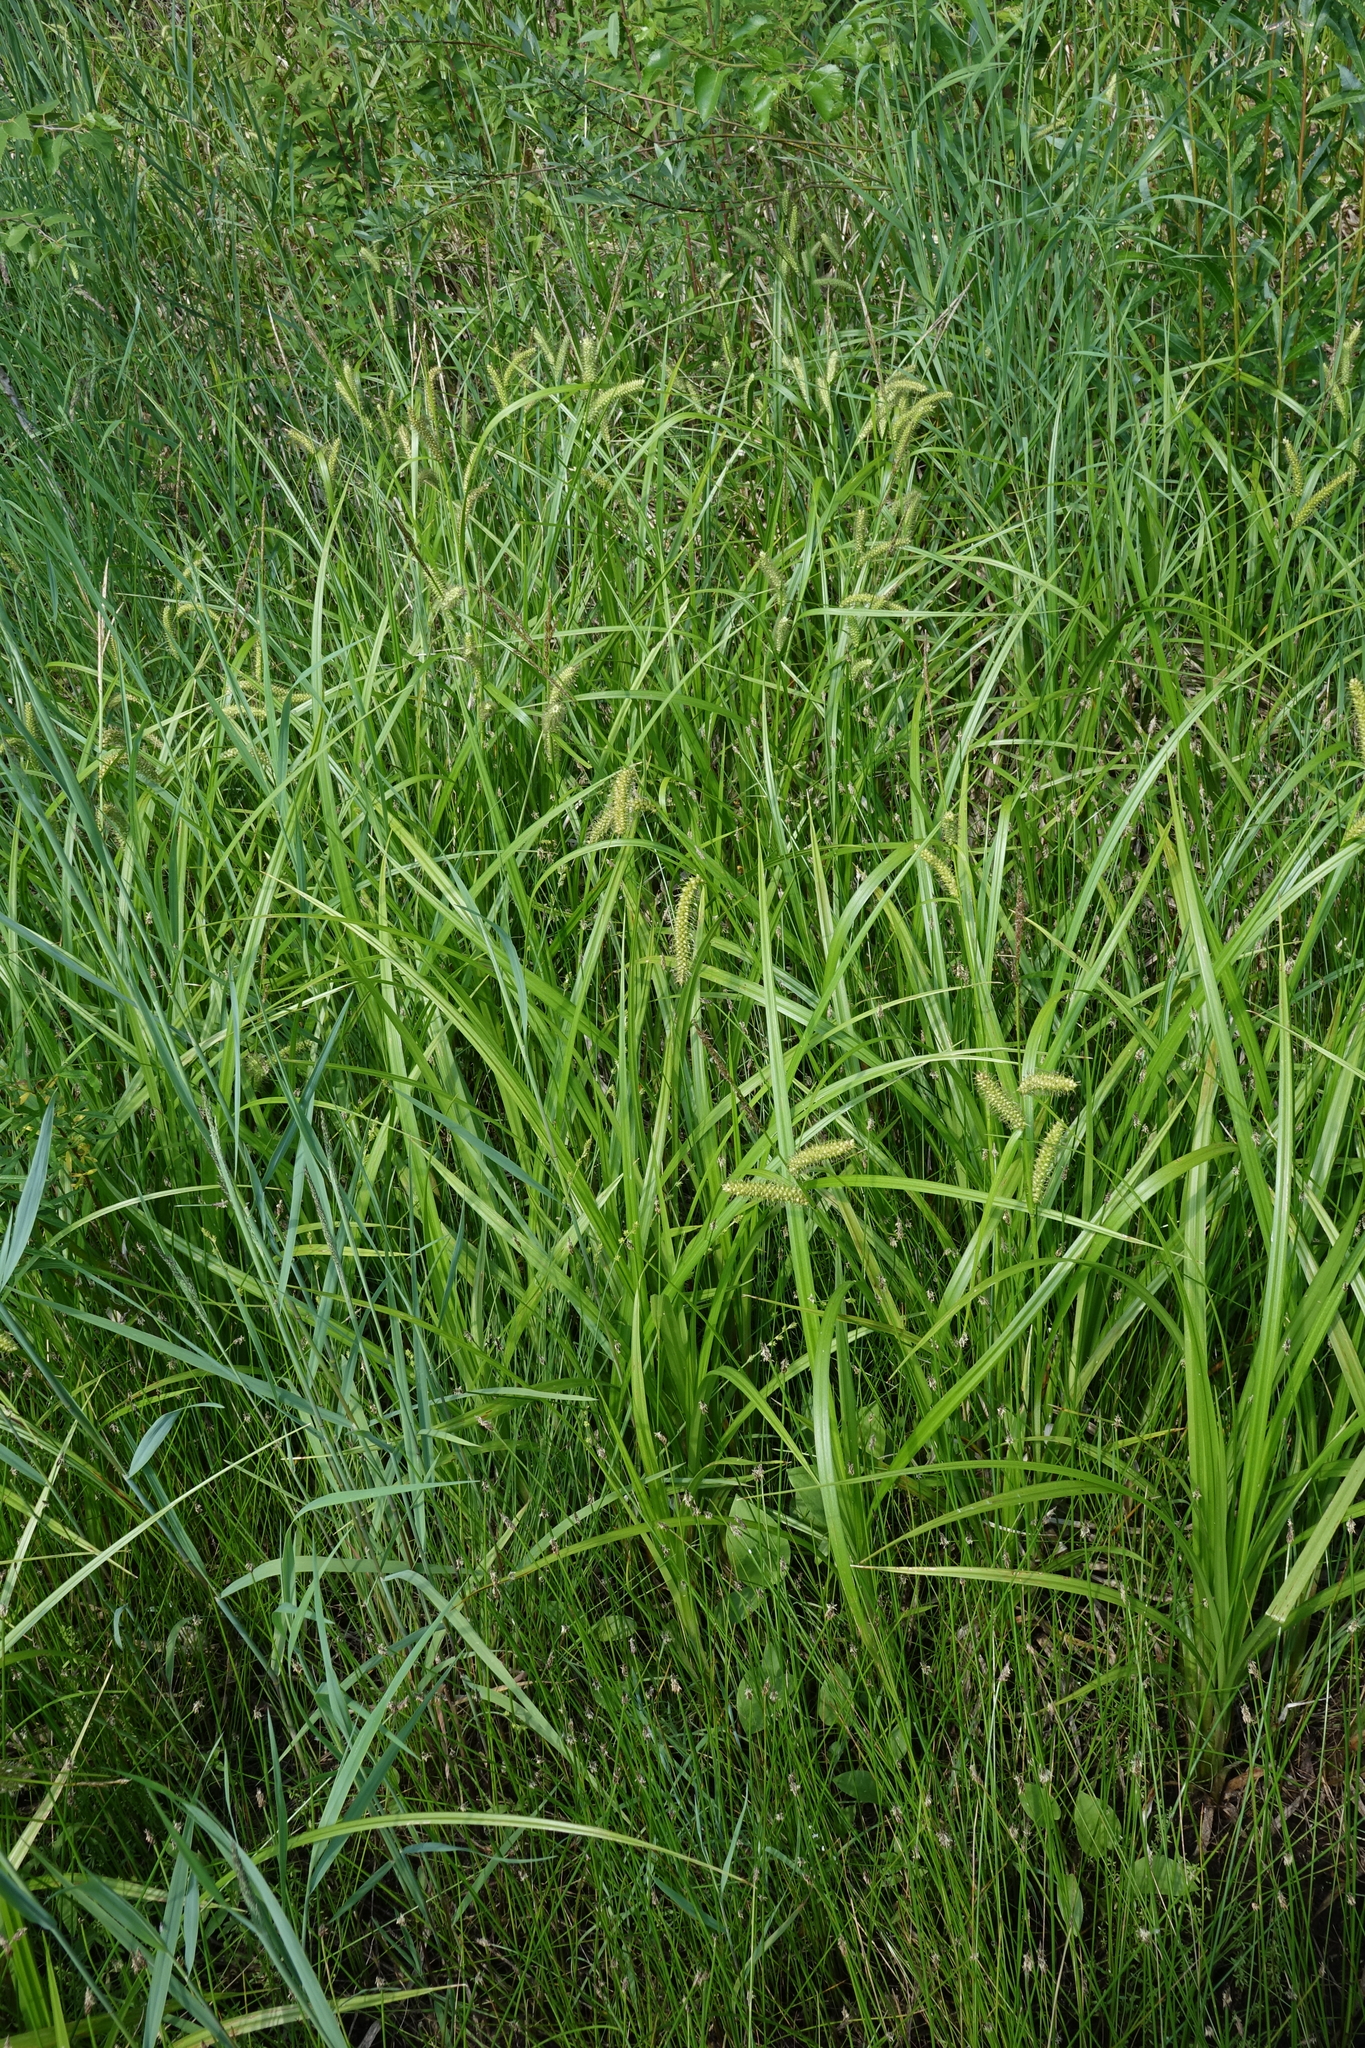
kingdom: Plantae
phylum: Tracheophyta
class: Liliopsida
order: Poales
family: Cyperaceae
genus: Carex
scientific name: Carex utriculata
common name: Beaked sedge
